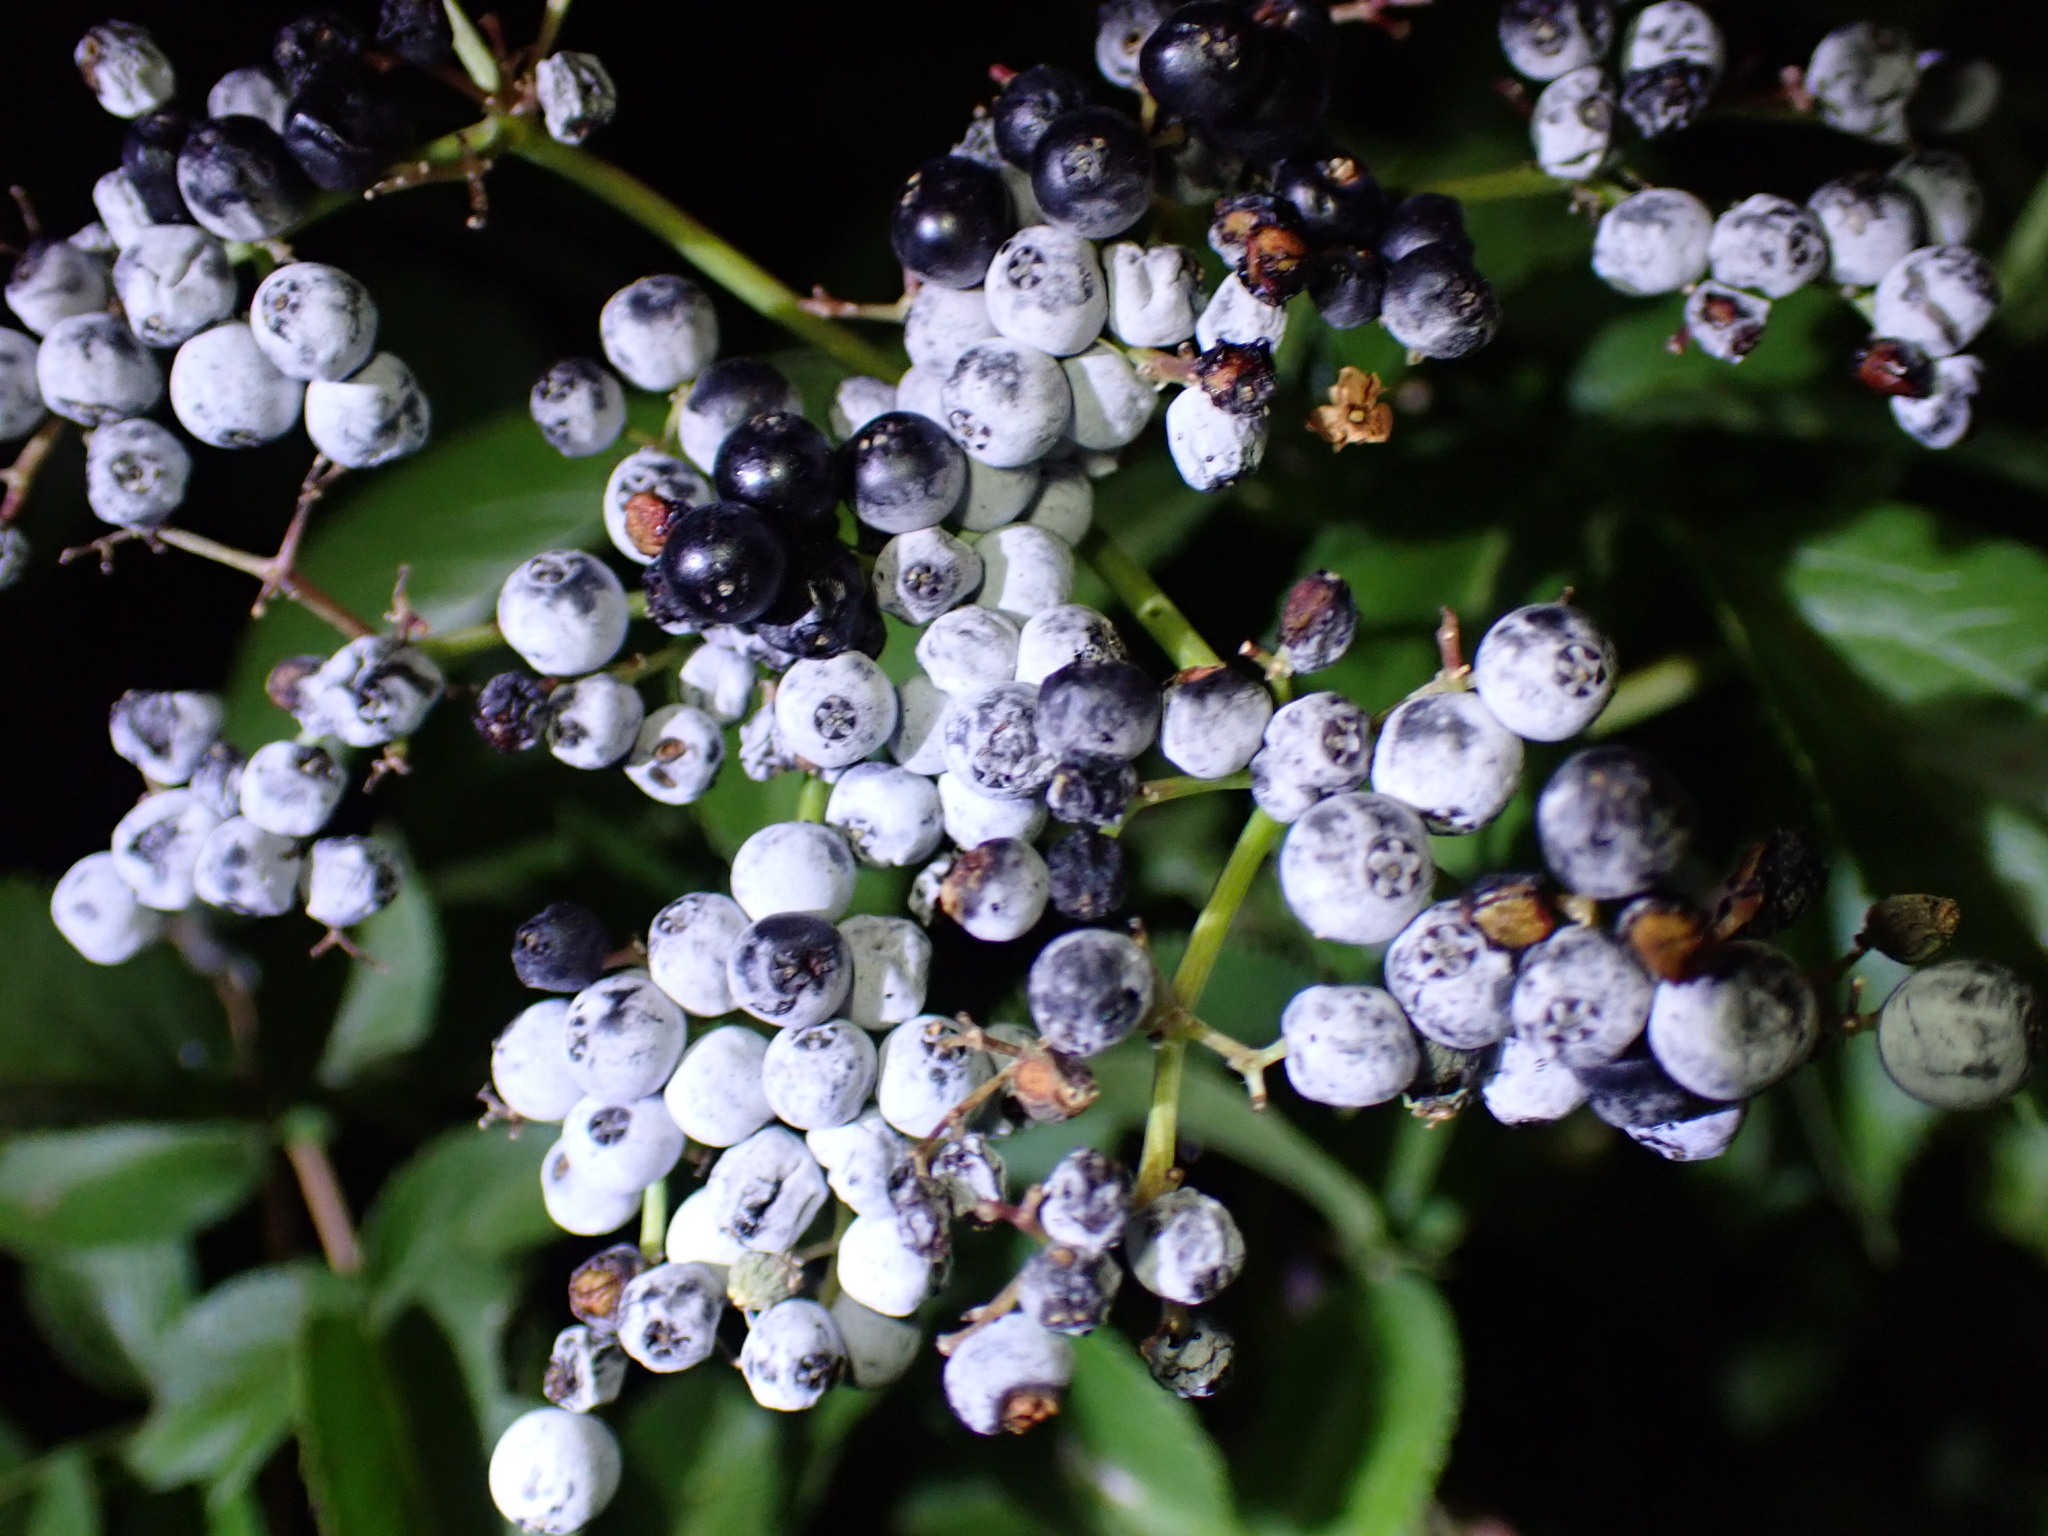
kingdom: Plantae
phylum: Tracheophyta
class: Magnoliopsida
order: Dipsacales
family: Viburnaceae
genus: Sambucus
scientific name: Sambucus cerulea
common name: Blue elder
